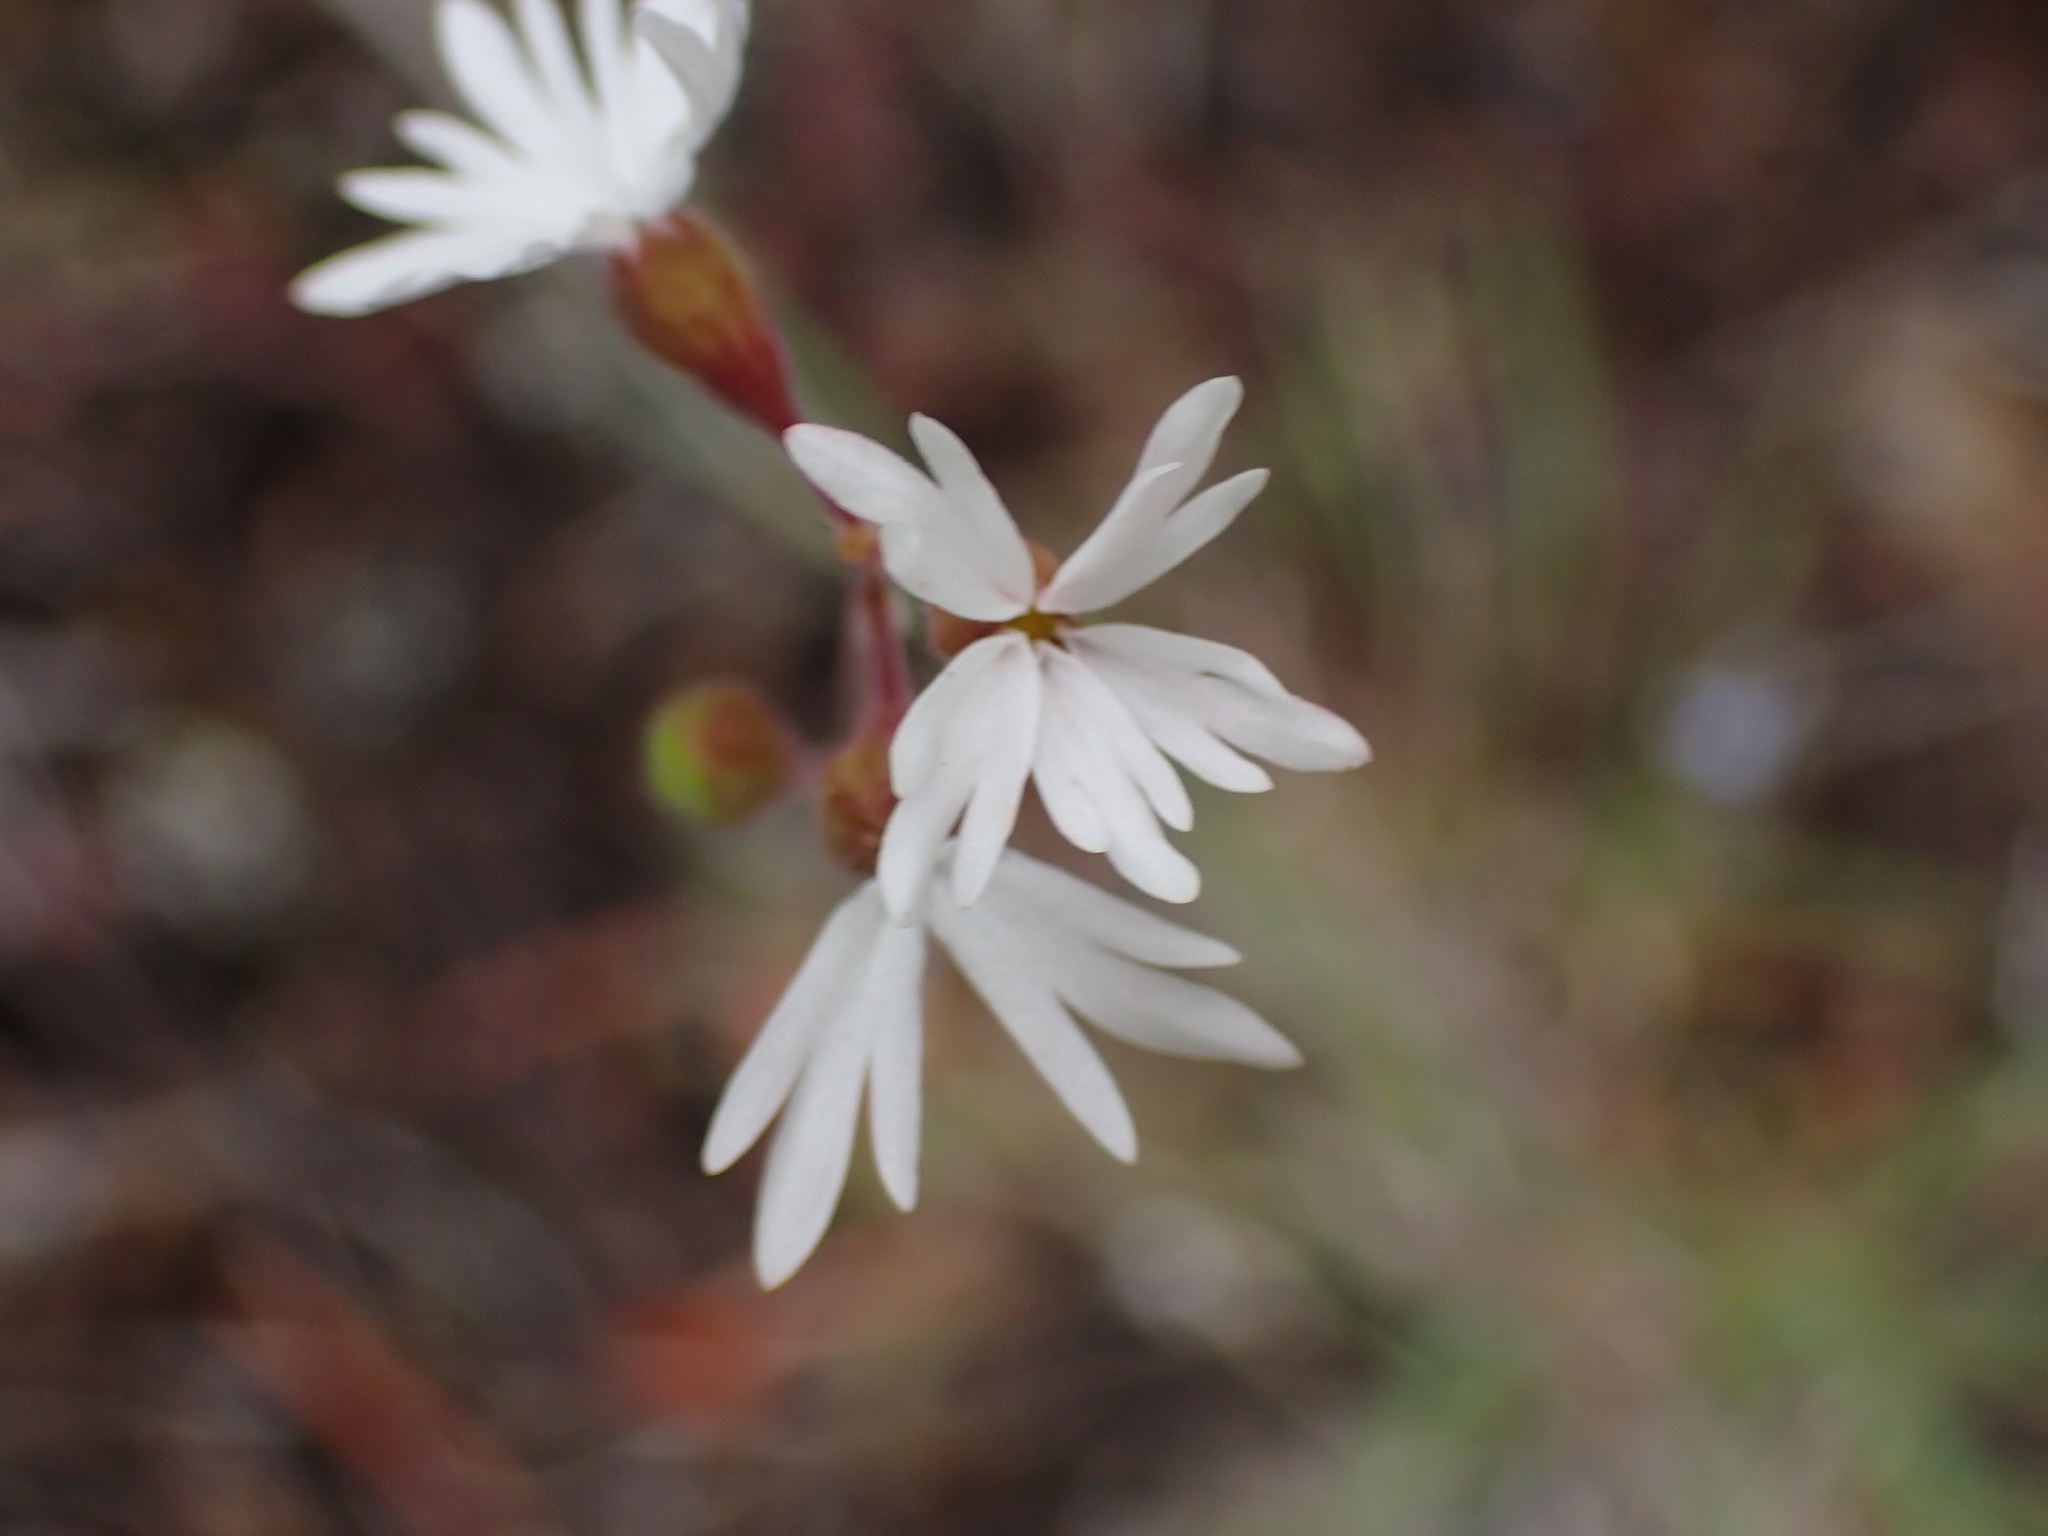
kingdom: Plantae
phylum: Tracheophyta
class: Magnoliopsida
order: Saxifragales
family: Saxifragaceae
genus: Lithophragma
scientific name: Lithophragma parviflorum
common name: Small-flowered fringe-cup
